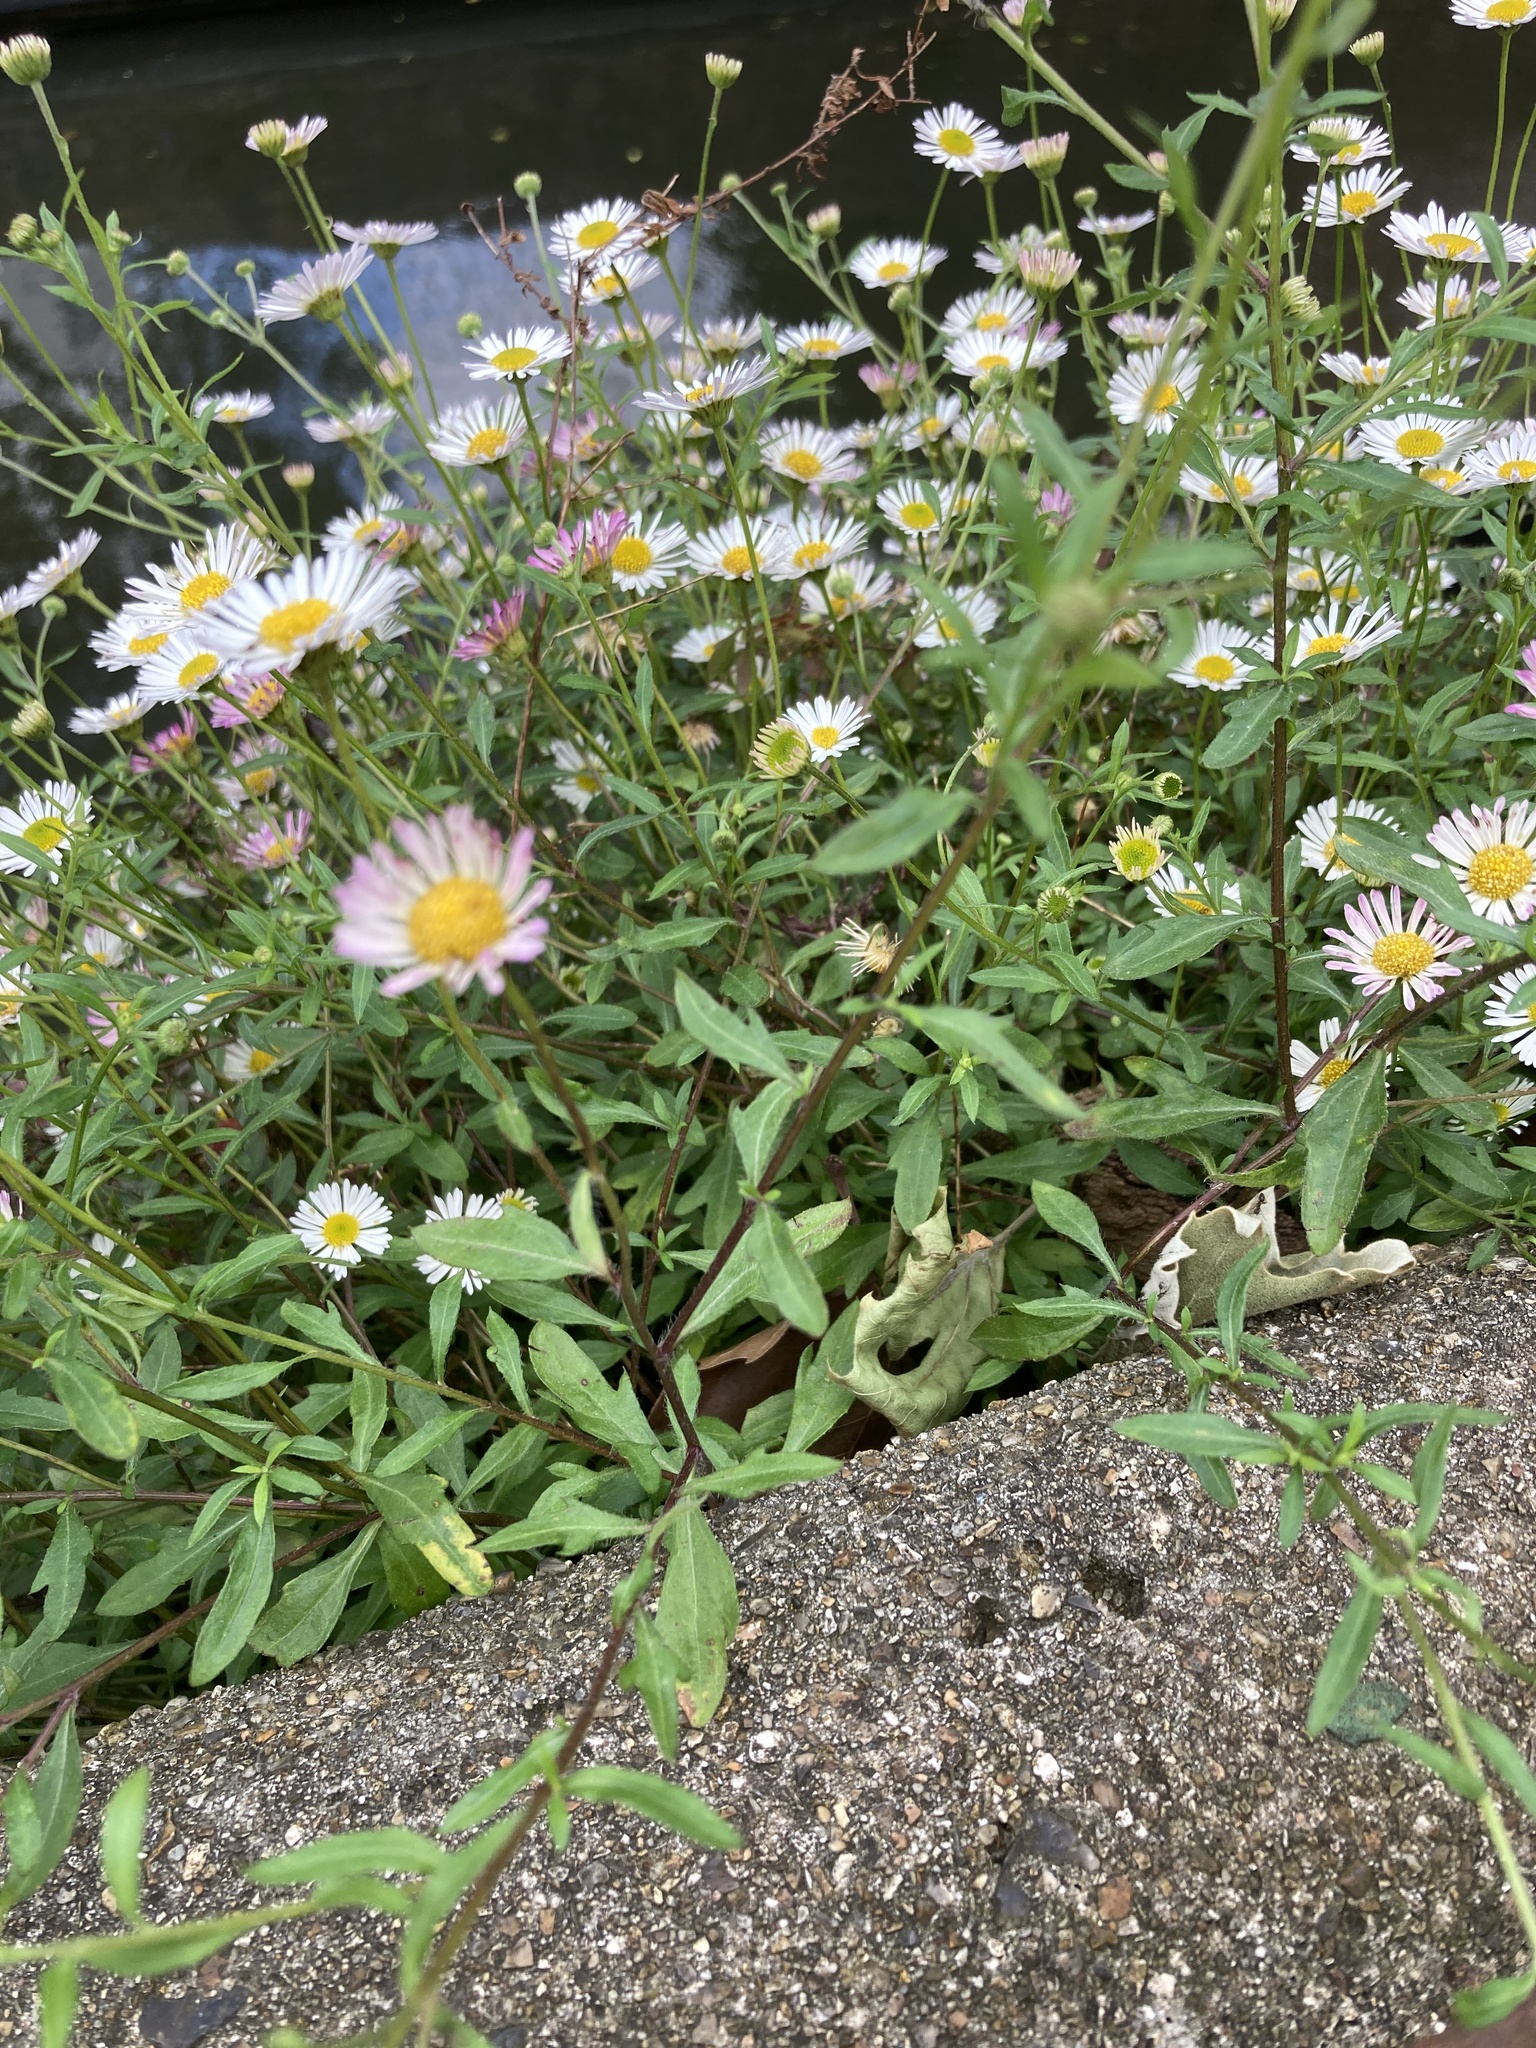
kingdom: Plantae
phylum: Tracheophyta
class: Magnoliopsida
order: Asterales
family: Asteraceae
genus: Erigeron
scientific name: Erigeron karvinskianus
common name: Mexican fleabane
